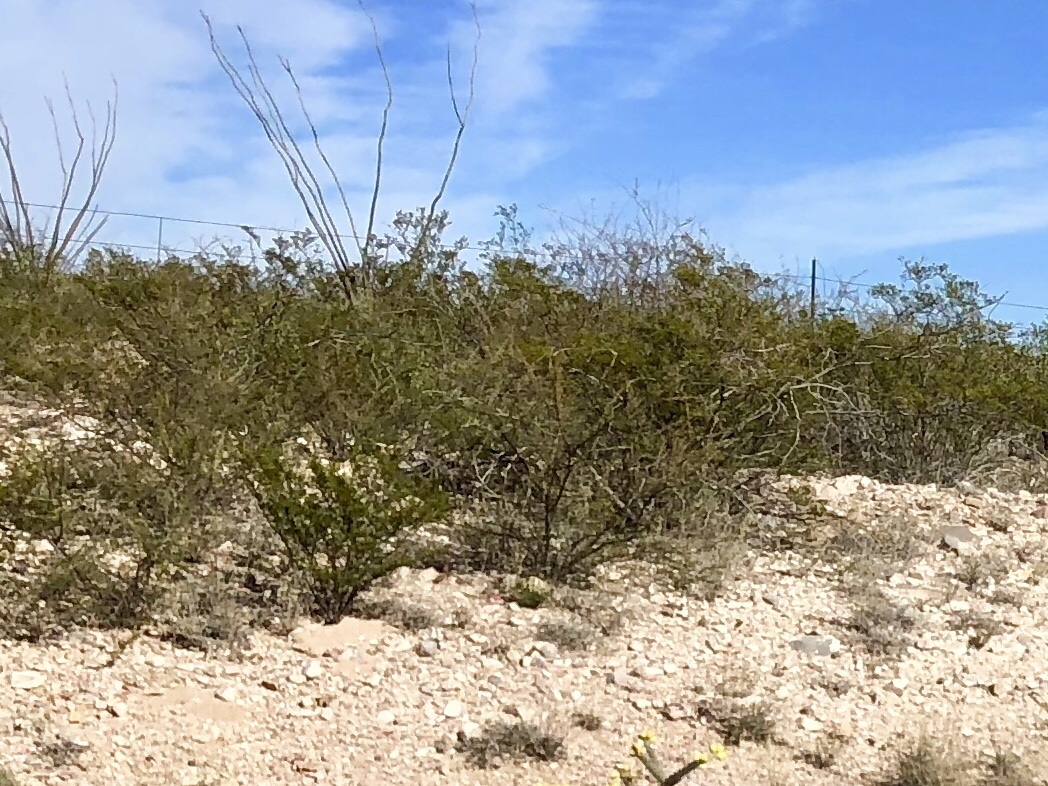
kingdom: Plantae
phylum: Tracheophyta
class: Magnoliopsida
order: Zygophyllales
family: Zygophyllaceae
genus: Larrea
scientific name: Larrea tridentata
